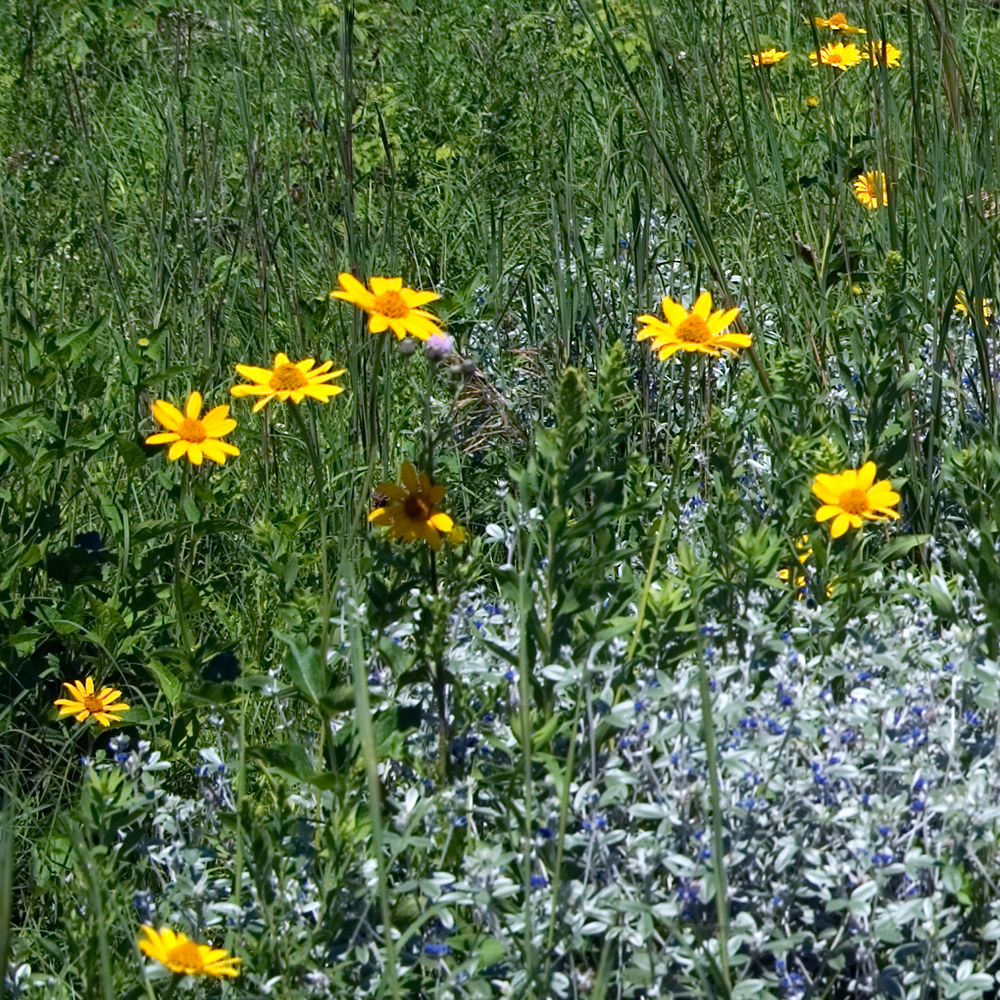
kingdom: Plantae
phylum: Tracheophyta
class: Magnoliopsida
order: Asterales
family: Asteraceae
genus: Heliopsis
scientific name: Heliopsis helianthoides
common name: False sunflower
